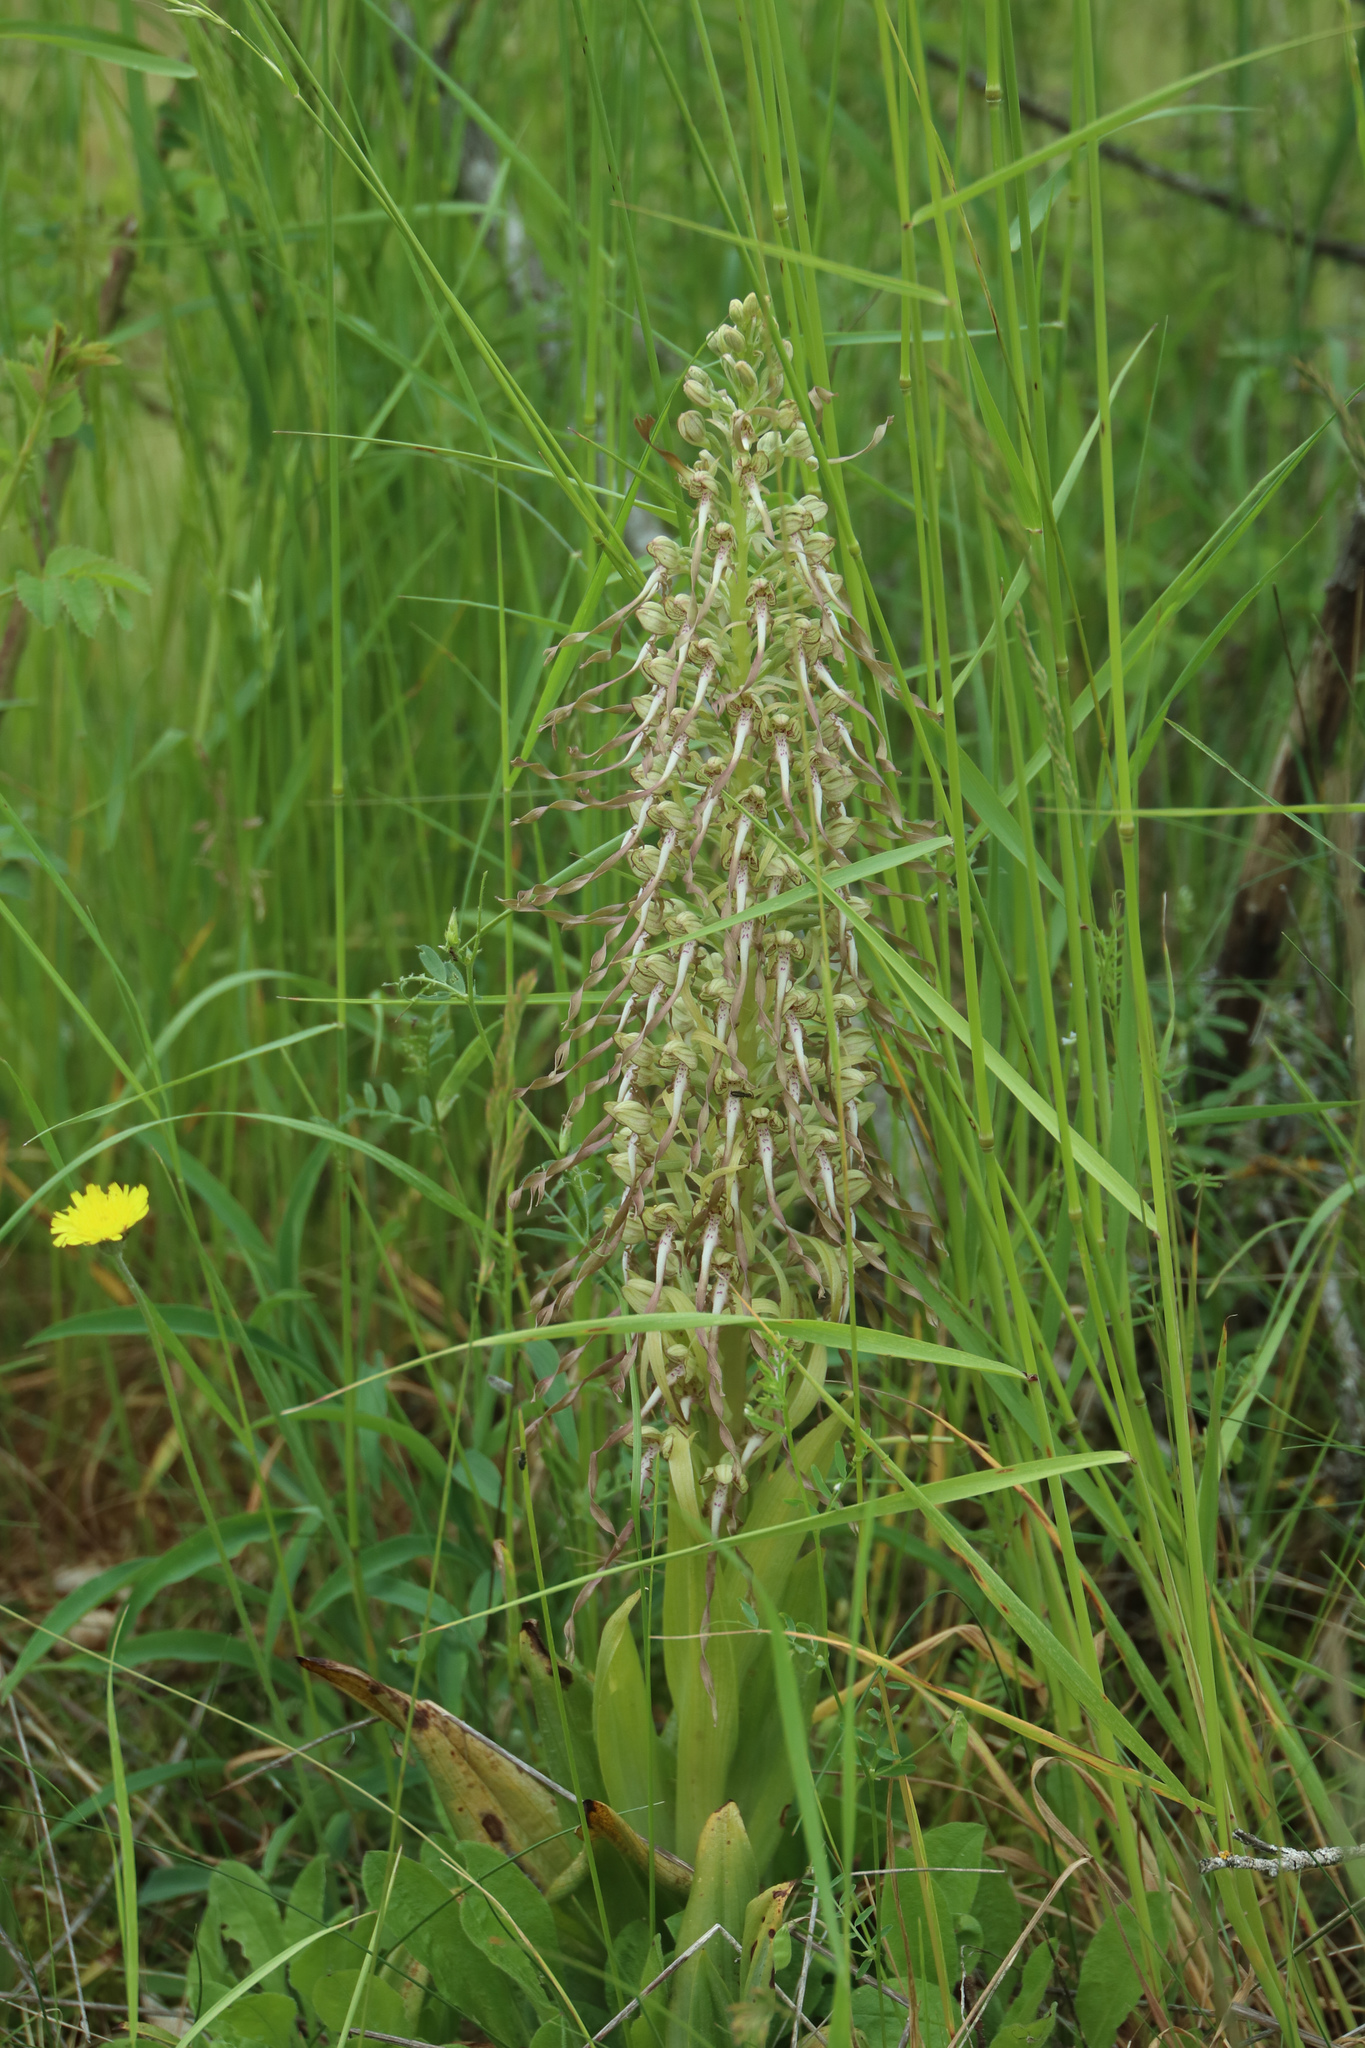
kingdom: Plantae
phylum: Tracheophyta
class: Liliopsida
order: Asparagales
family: Orchidaceae
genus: Himantoglossum
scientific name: Himantoglossum hircinum
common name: Lizard orchid
